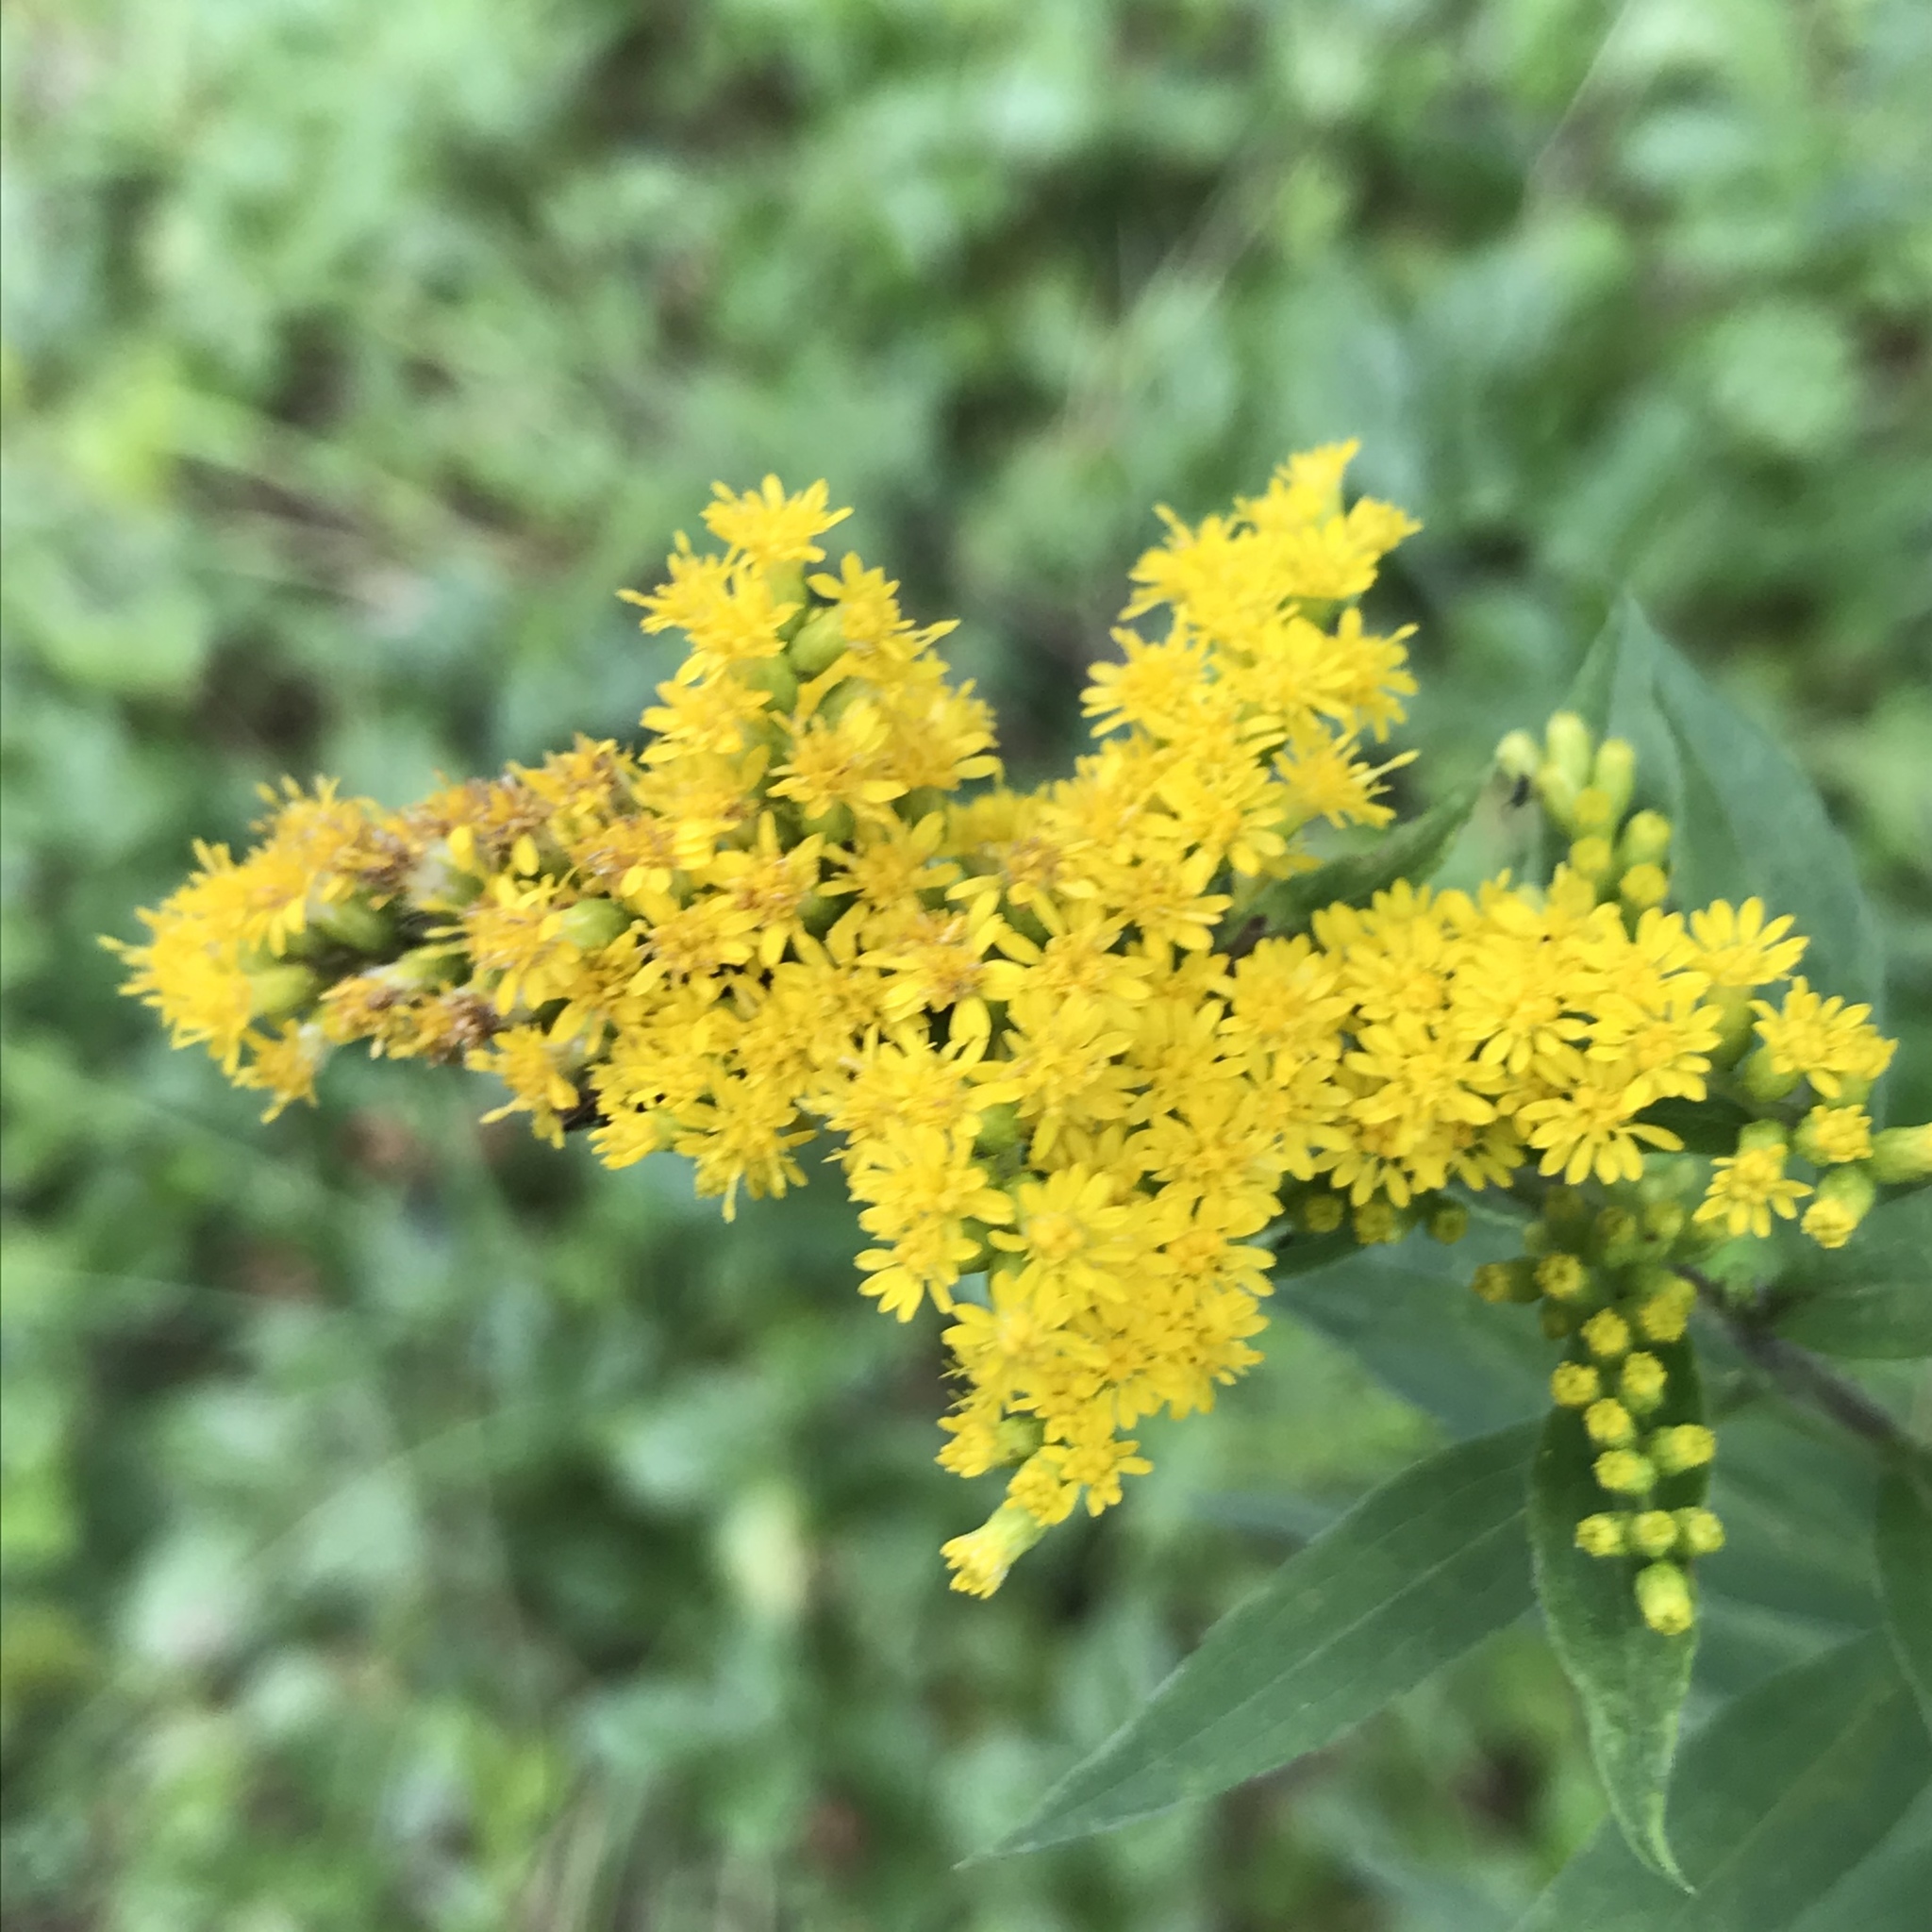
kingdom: Plantae
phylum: Tracheophyta
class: Magnoliopsida
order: Asterales
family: Asteraceae
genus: Solidago
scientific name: Solidago canadensis
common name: Canada goldenrod
